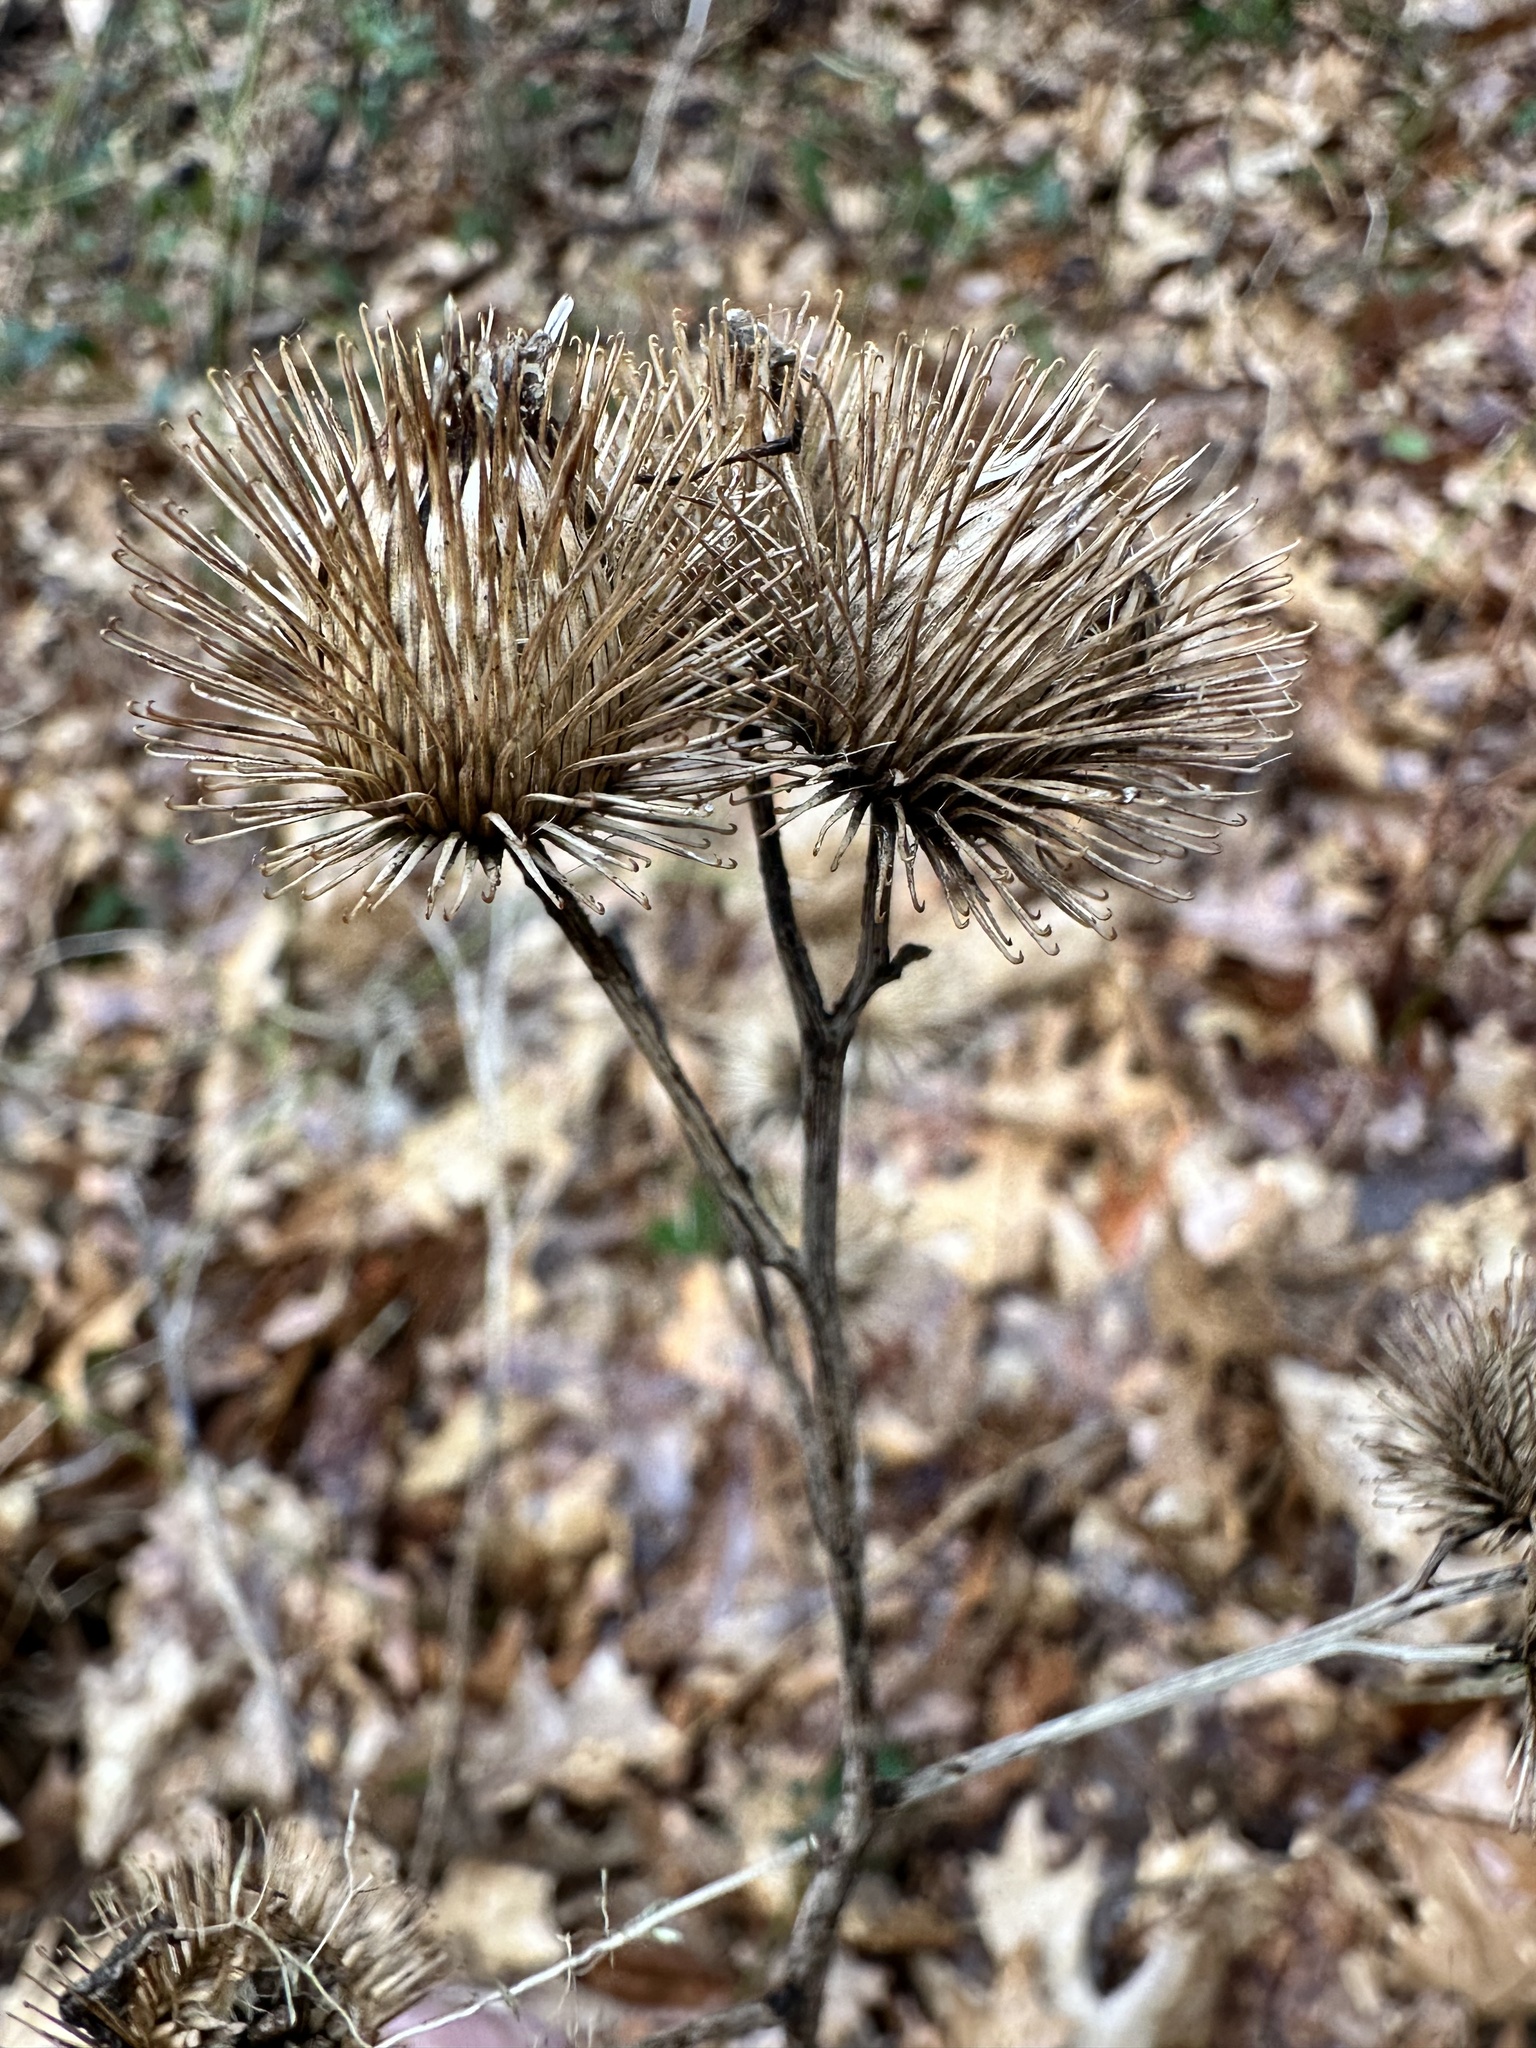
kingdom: Plantae
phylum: Tracheophyta
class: Magnoliopsida
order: Asterales
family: Asteraceae
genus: Arctium
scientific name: Arctium lappa
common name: Greater burdock
